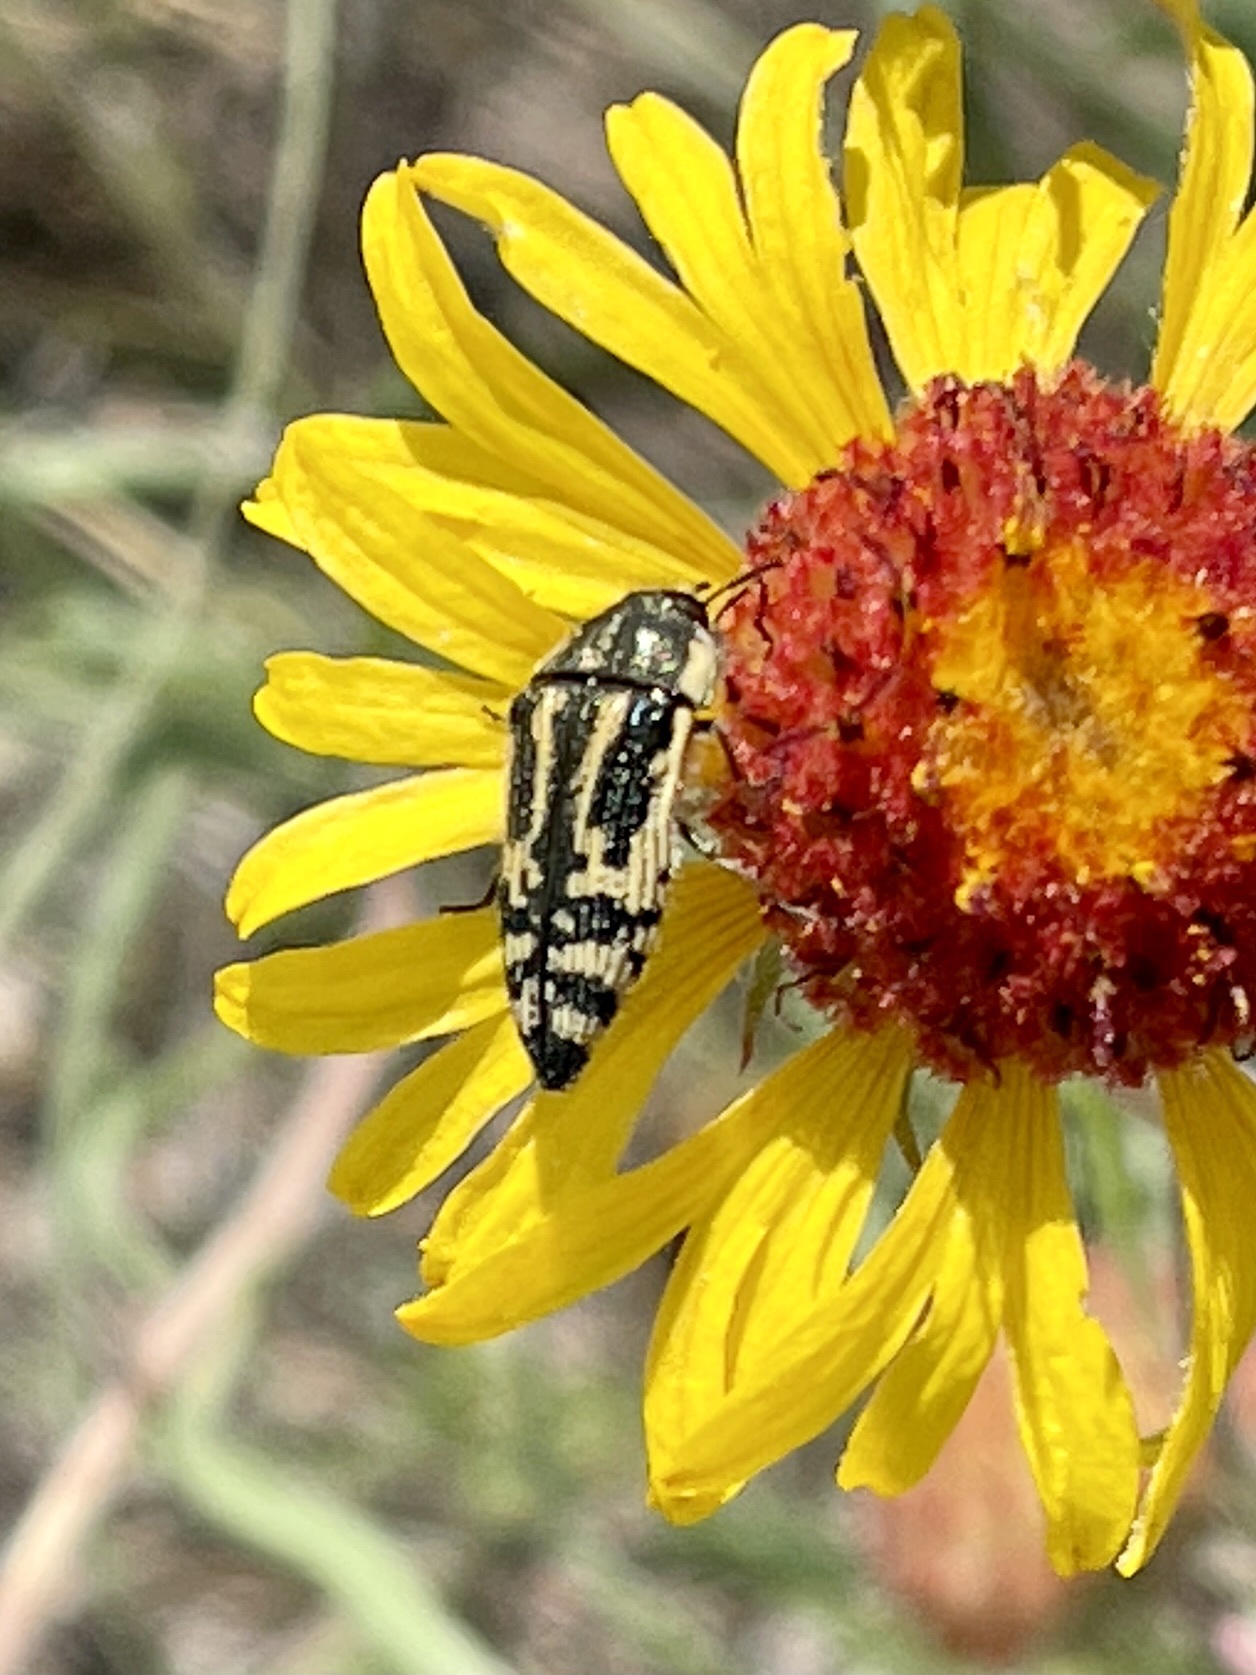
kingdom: Animalia
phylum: Arthropoda
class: Insecta
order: Coleoptera
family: Buprestidae
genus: Acmaeodera
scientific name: Acmaeodera amplicollis
